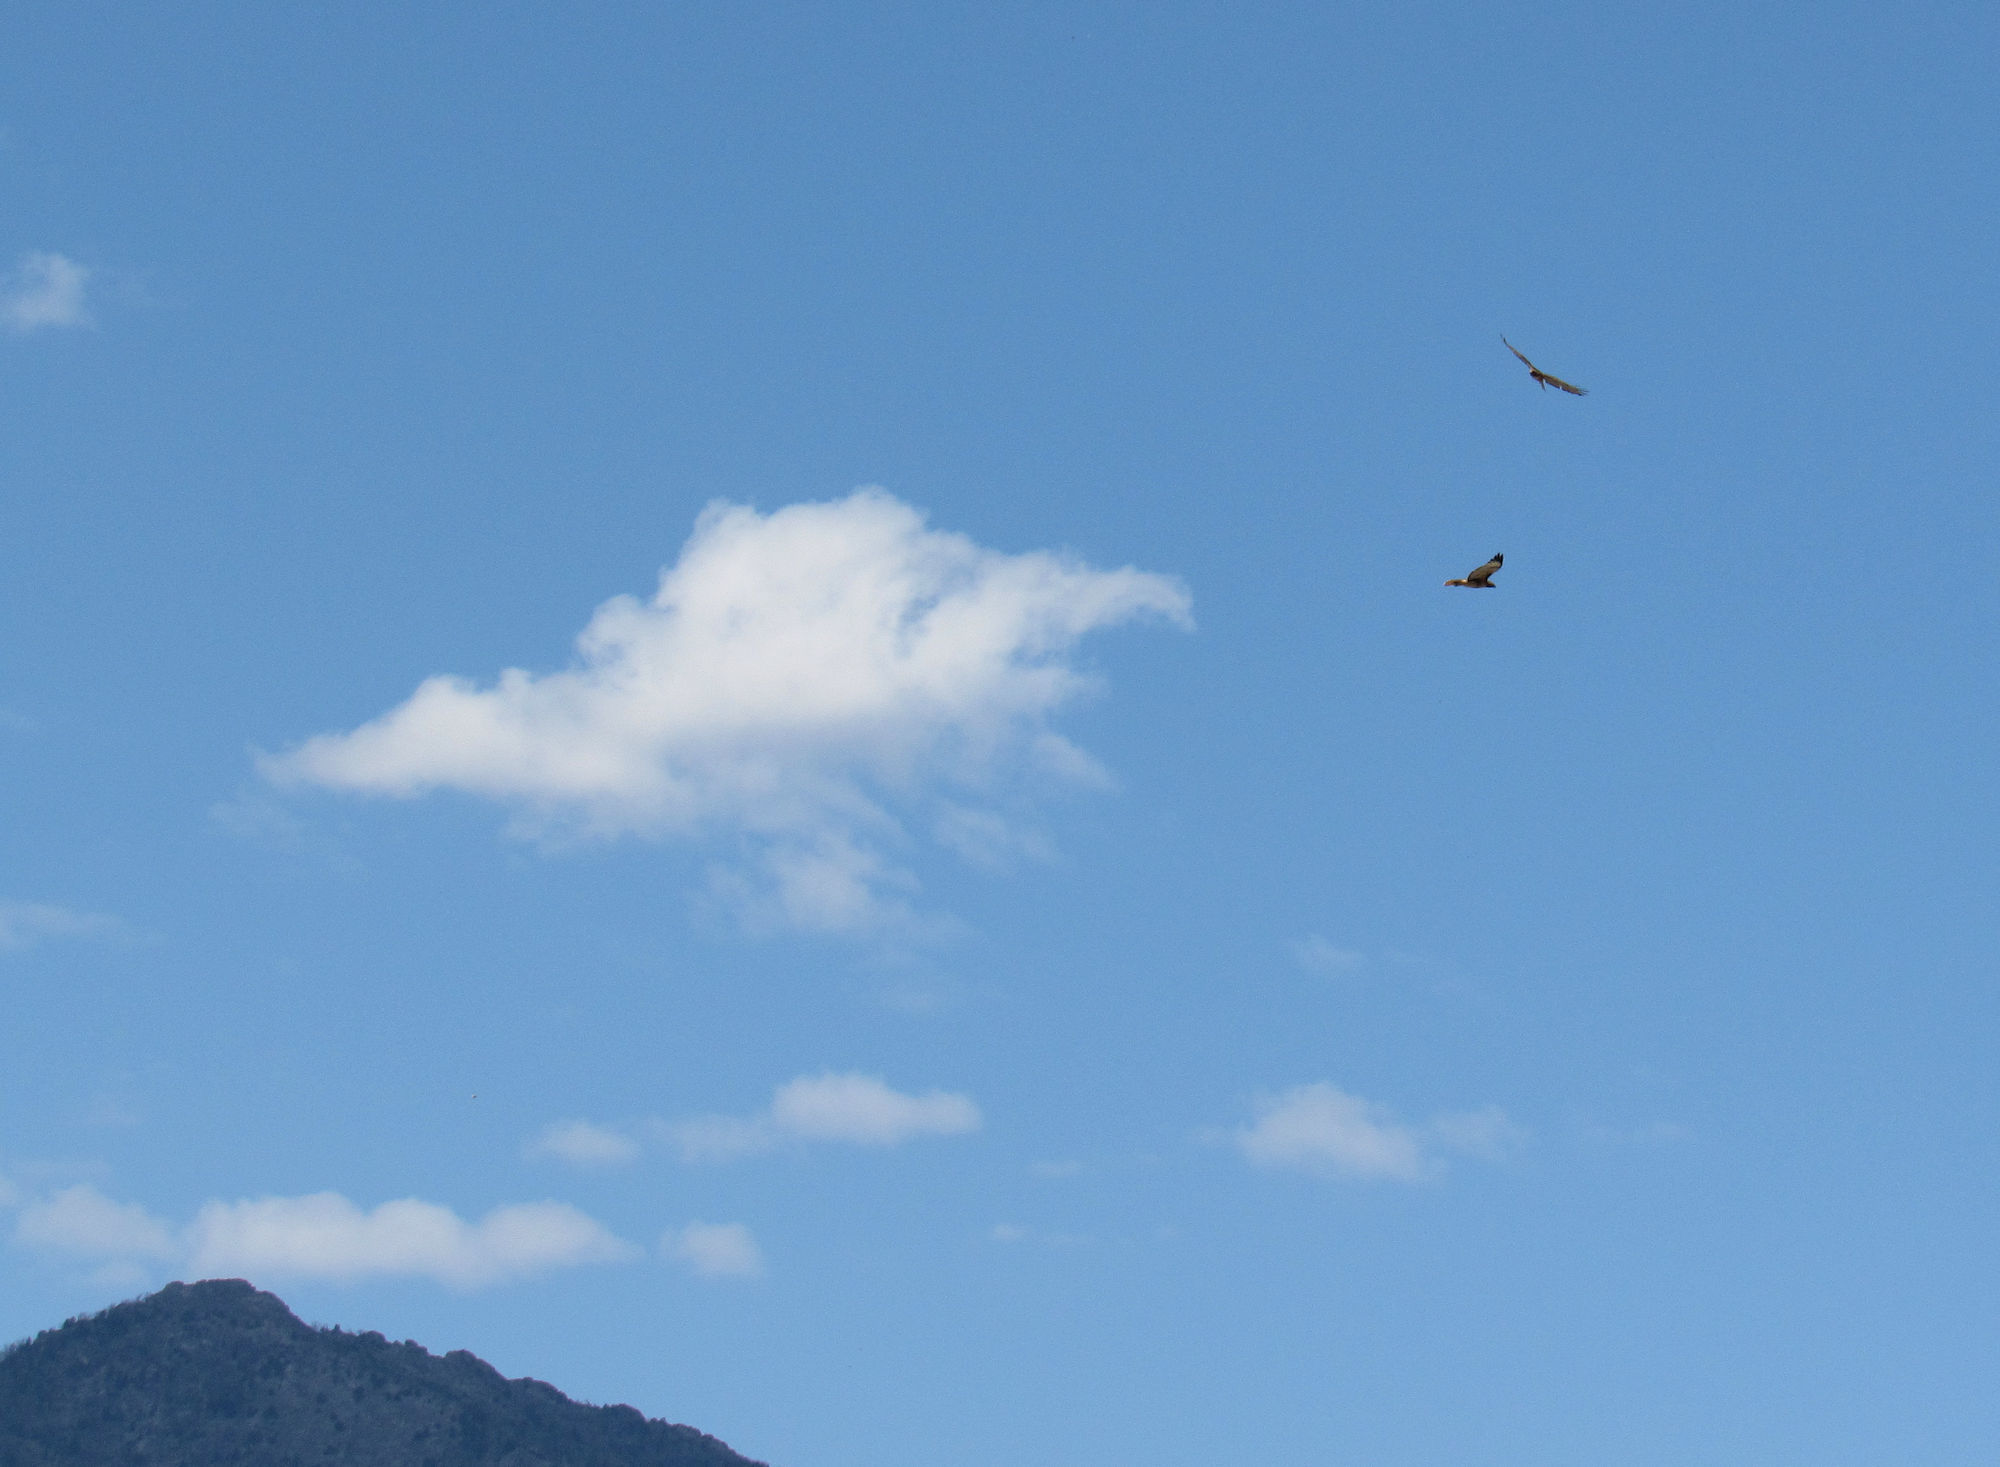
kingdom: Animalia
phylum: Chordata
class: Aves
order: Accipitriformes
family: Accipitridae
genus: Buteo
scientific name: Buteo jamaicensis
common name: Red-tailed hawk
